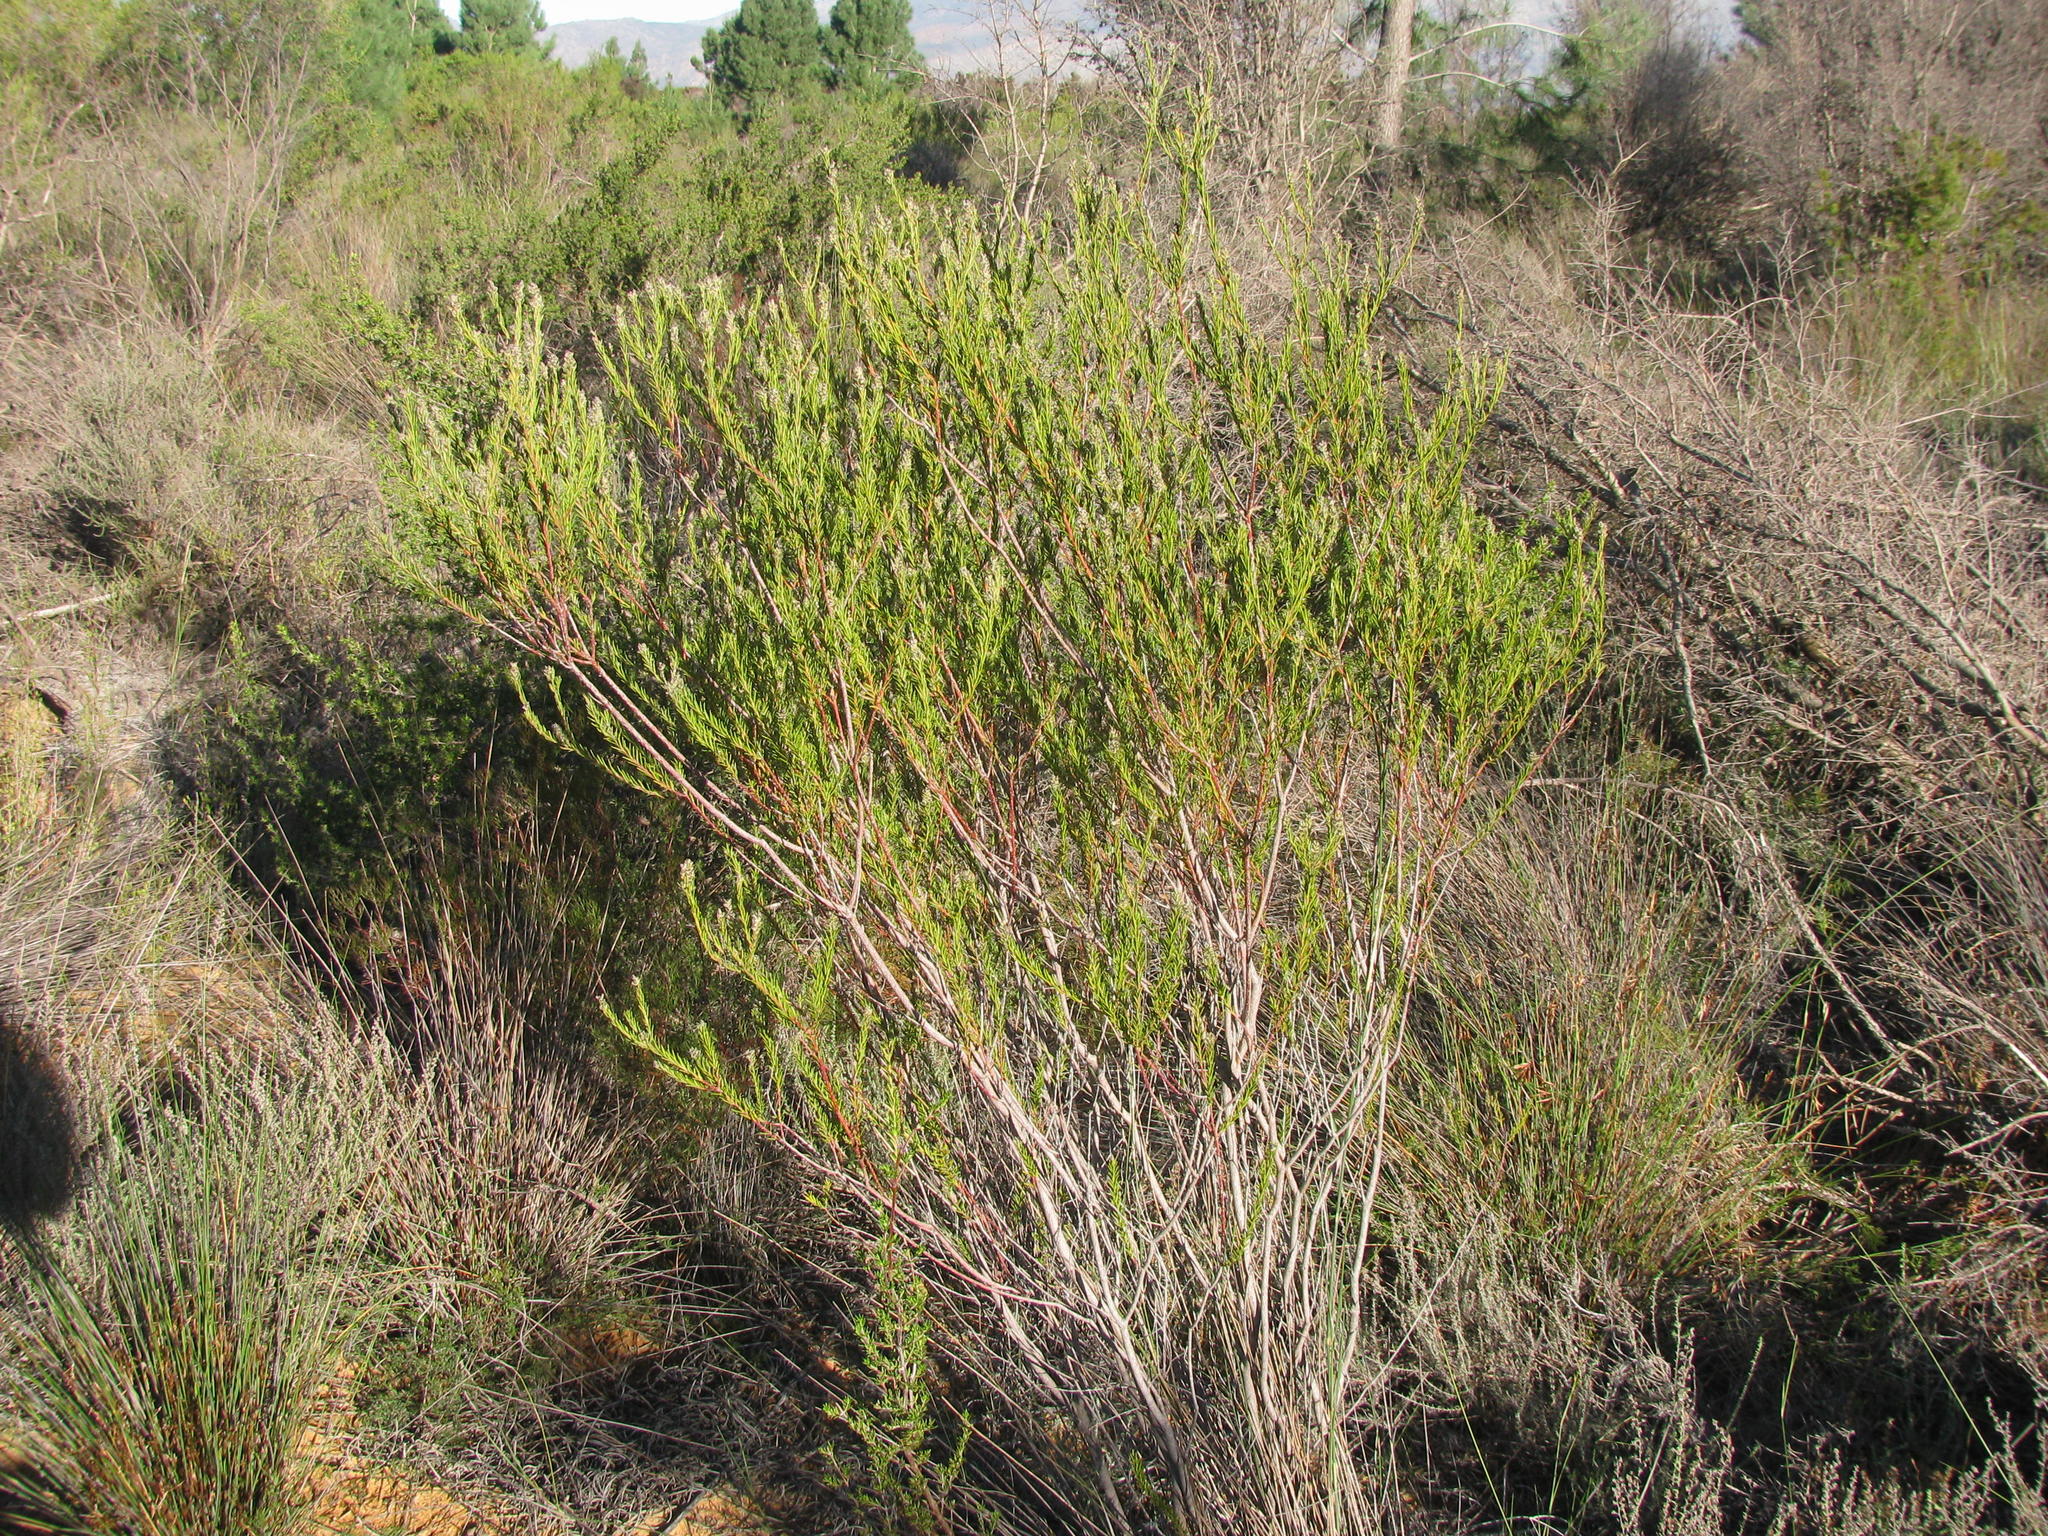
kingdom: Plantae
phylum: Tracheophyta
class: Magnoliopsida
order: Rosales
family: Rhamnaceae
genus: Phylica
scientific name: Phylica excelsa
